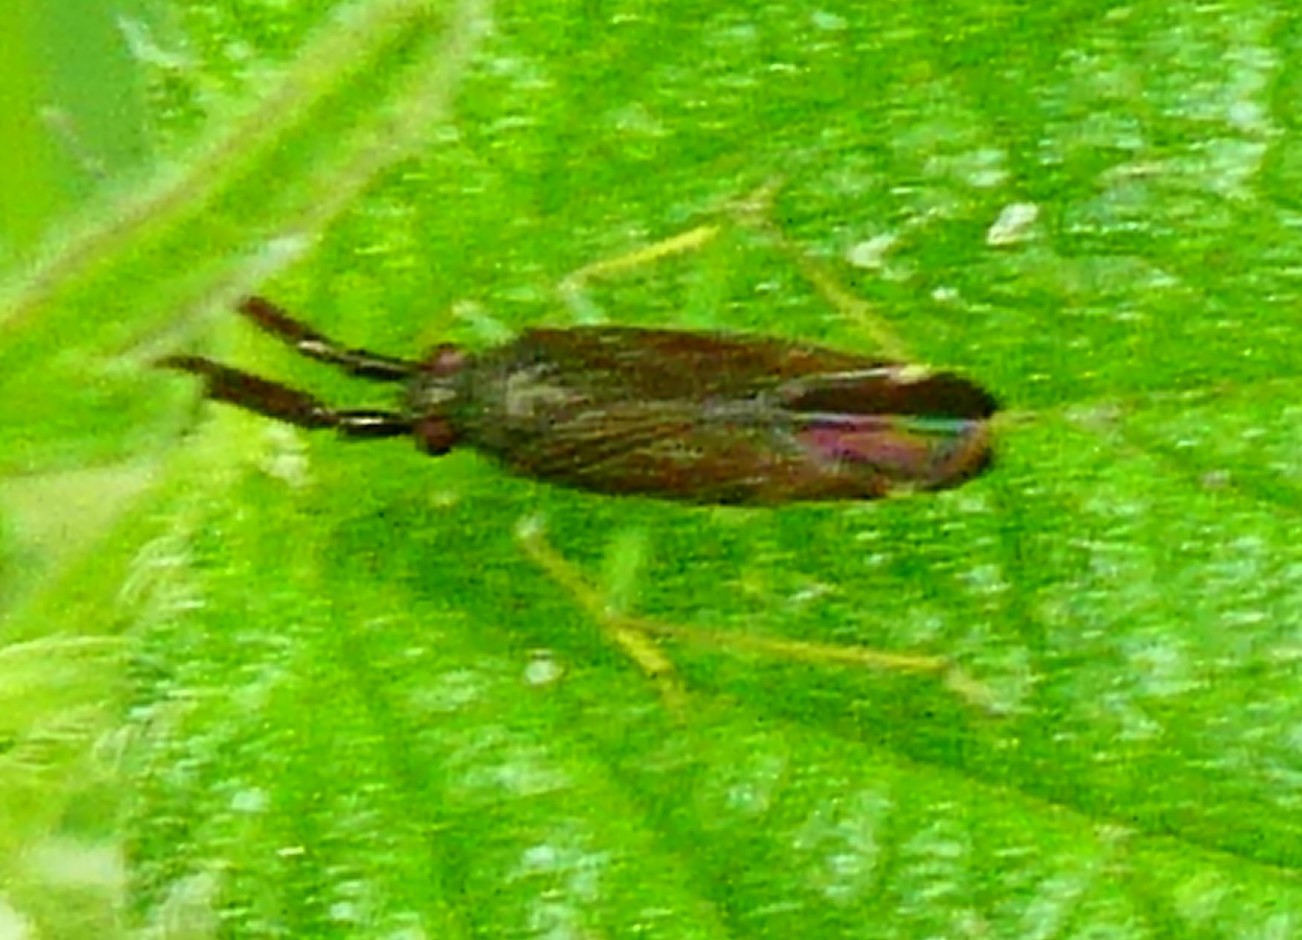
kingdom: Animalia
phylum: Arthropoda
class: Insecta
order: Hemiptera
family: Miridae
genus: Heterotoma
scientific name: Heterotoma planicornis
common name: Plant bug
